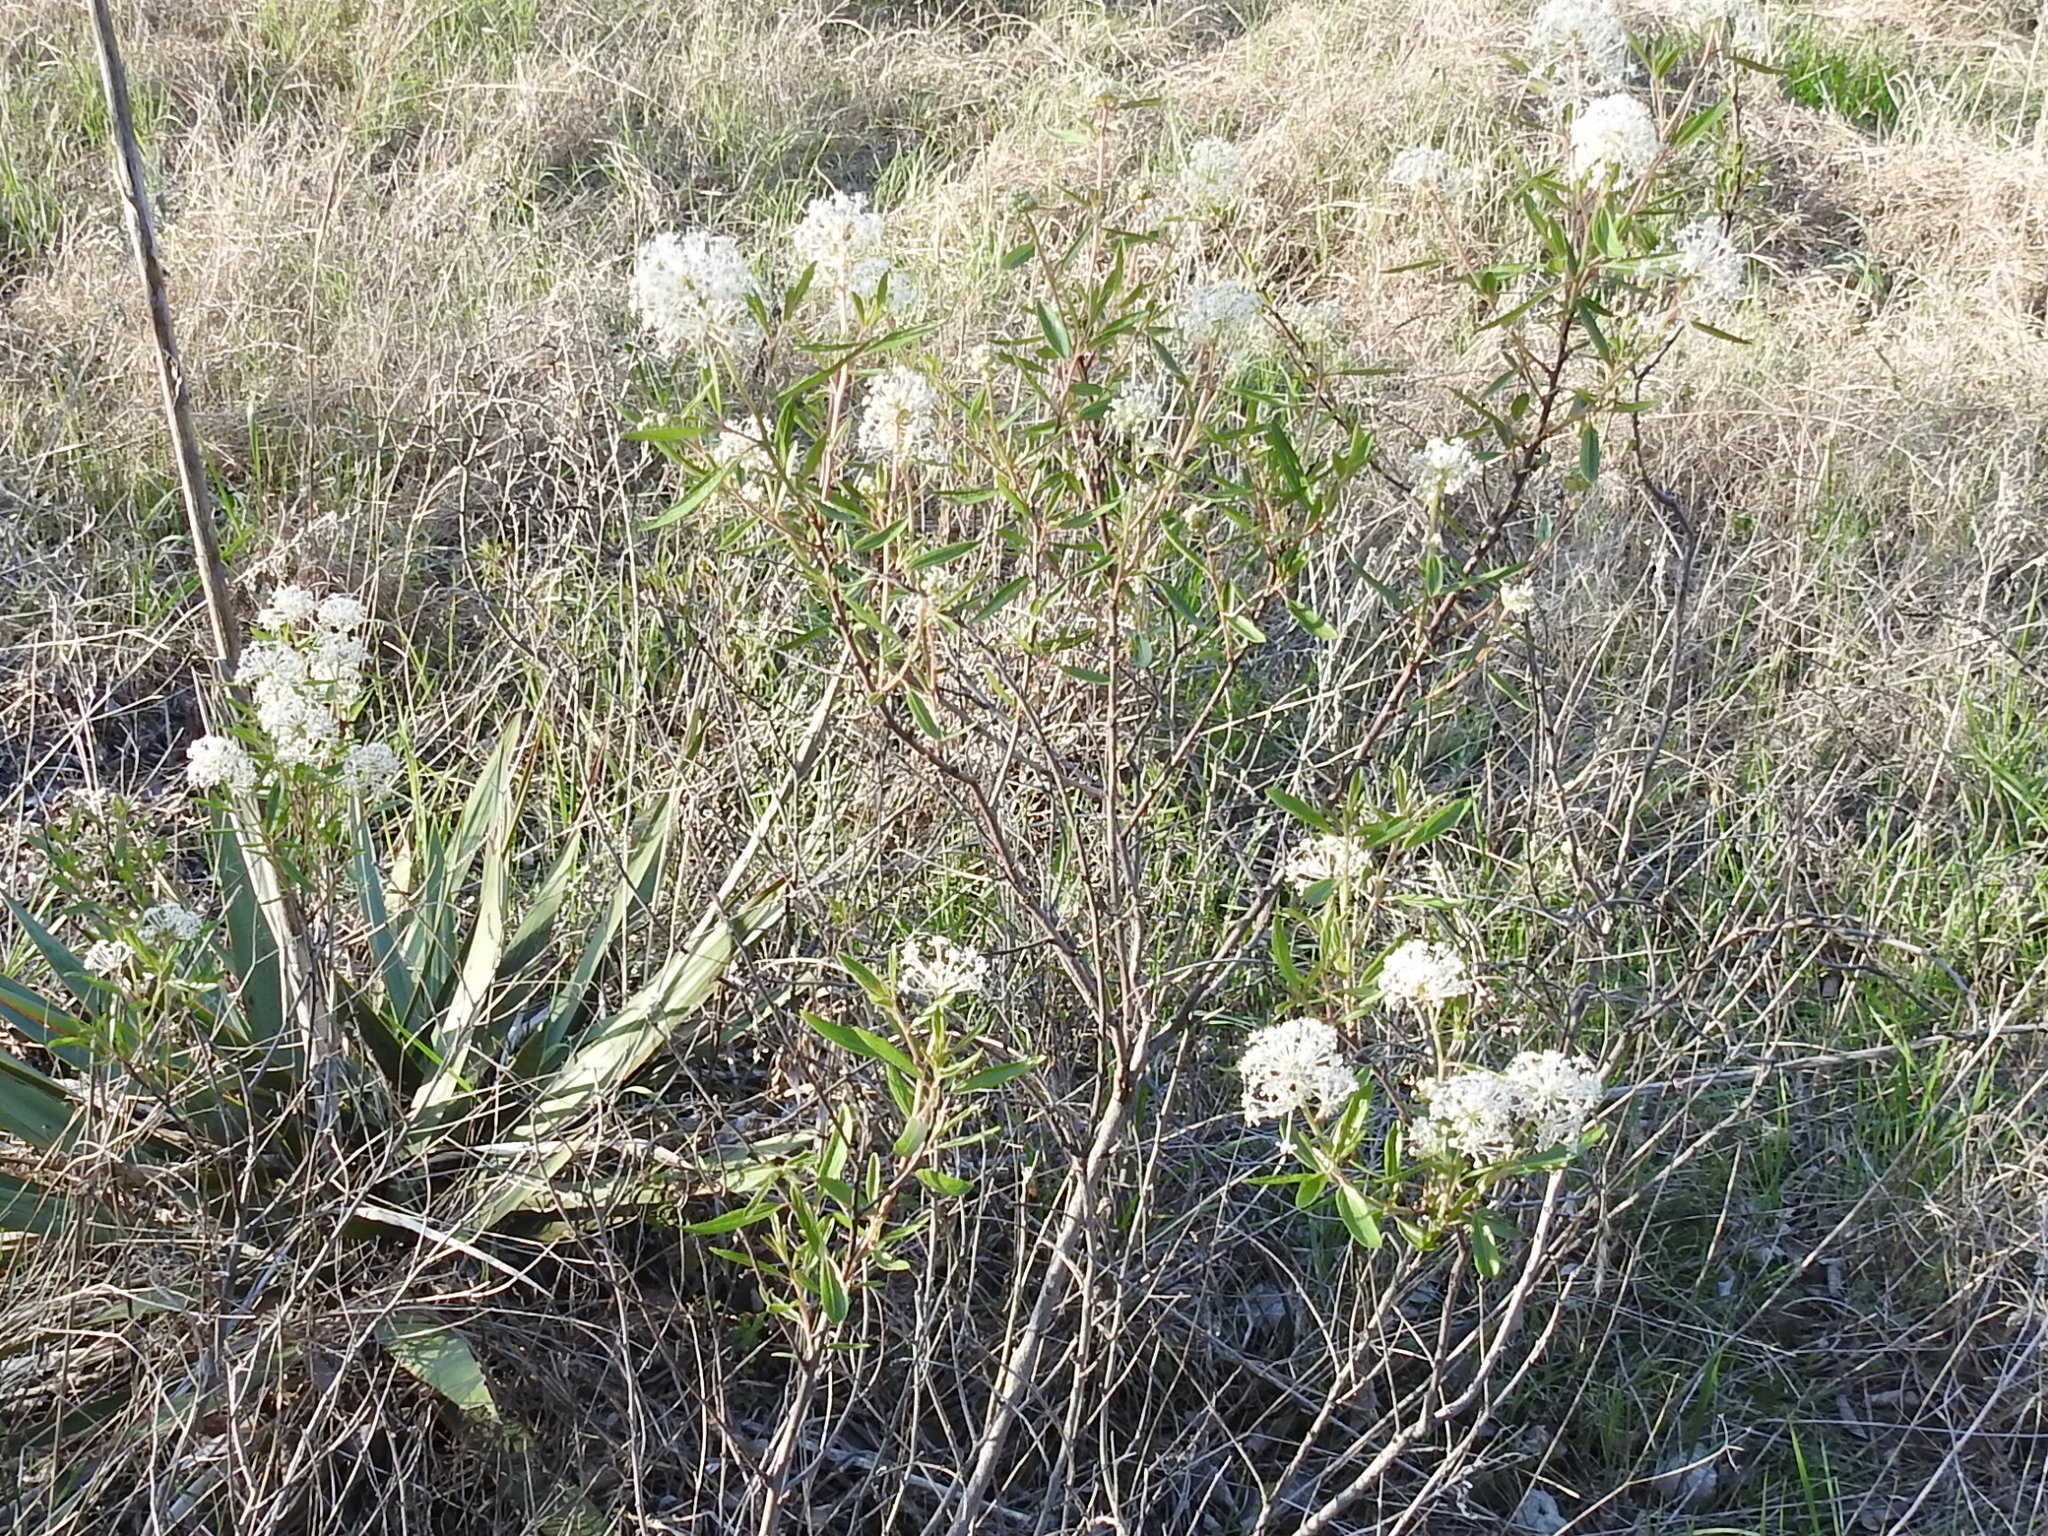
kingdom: Plantae
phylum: Tracheophyta
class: Magnoliopsida
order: Rosales
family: Rhamnaceae
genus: Ceanothus
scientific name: Ceanothus herbaceus
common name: Inland ceanothus
